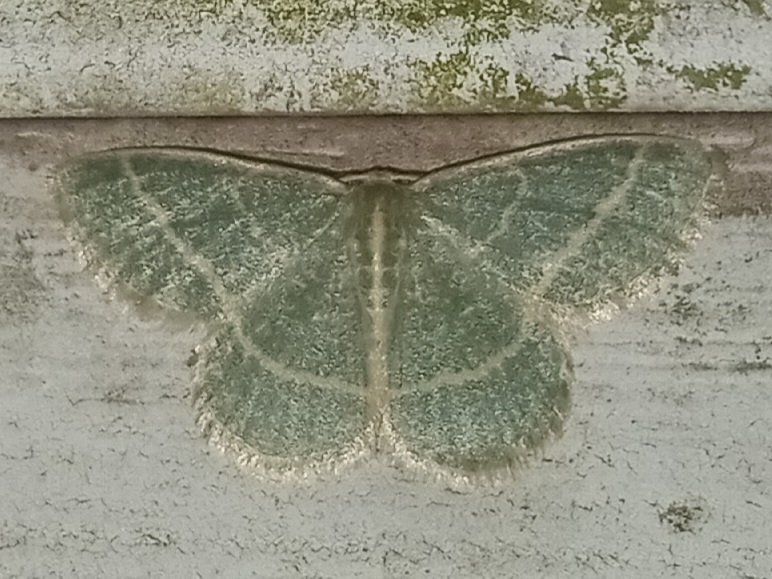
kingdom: Animalia
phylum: Arthropoda
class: Insecta
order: Lepidoptera
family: Geometridae
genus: Chlorochlamys
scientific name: Chlorochlamys chloroleucaria
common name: Blackberry looper
